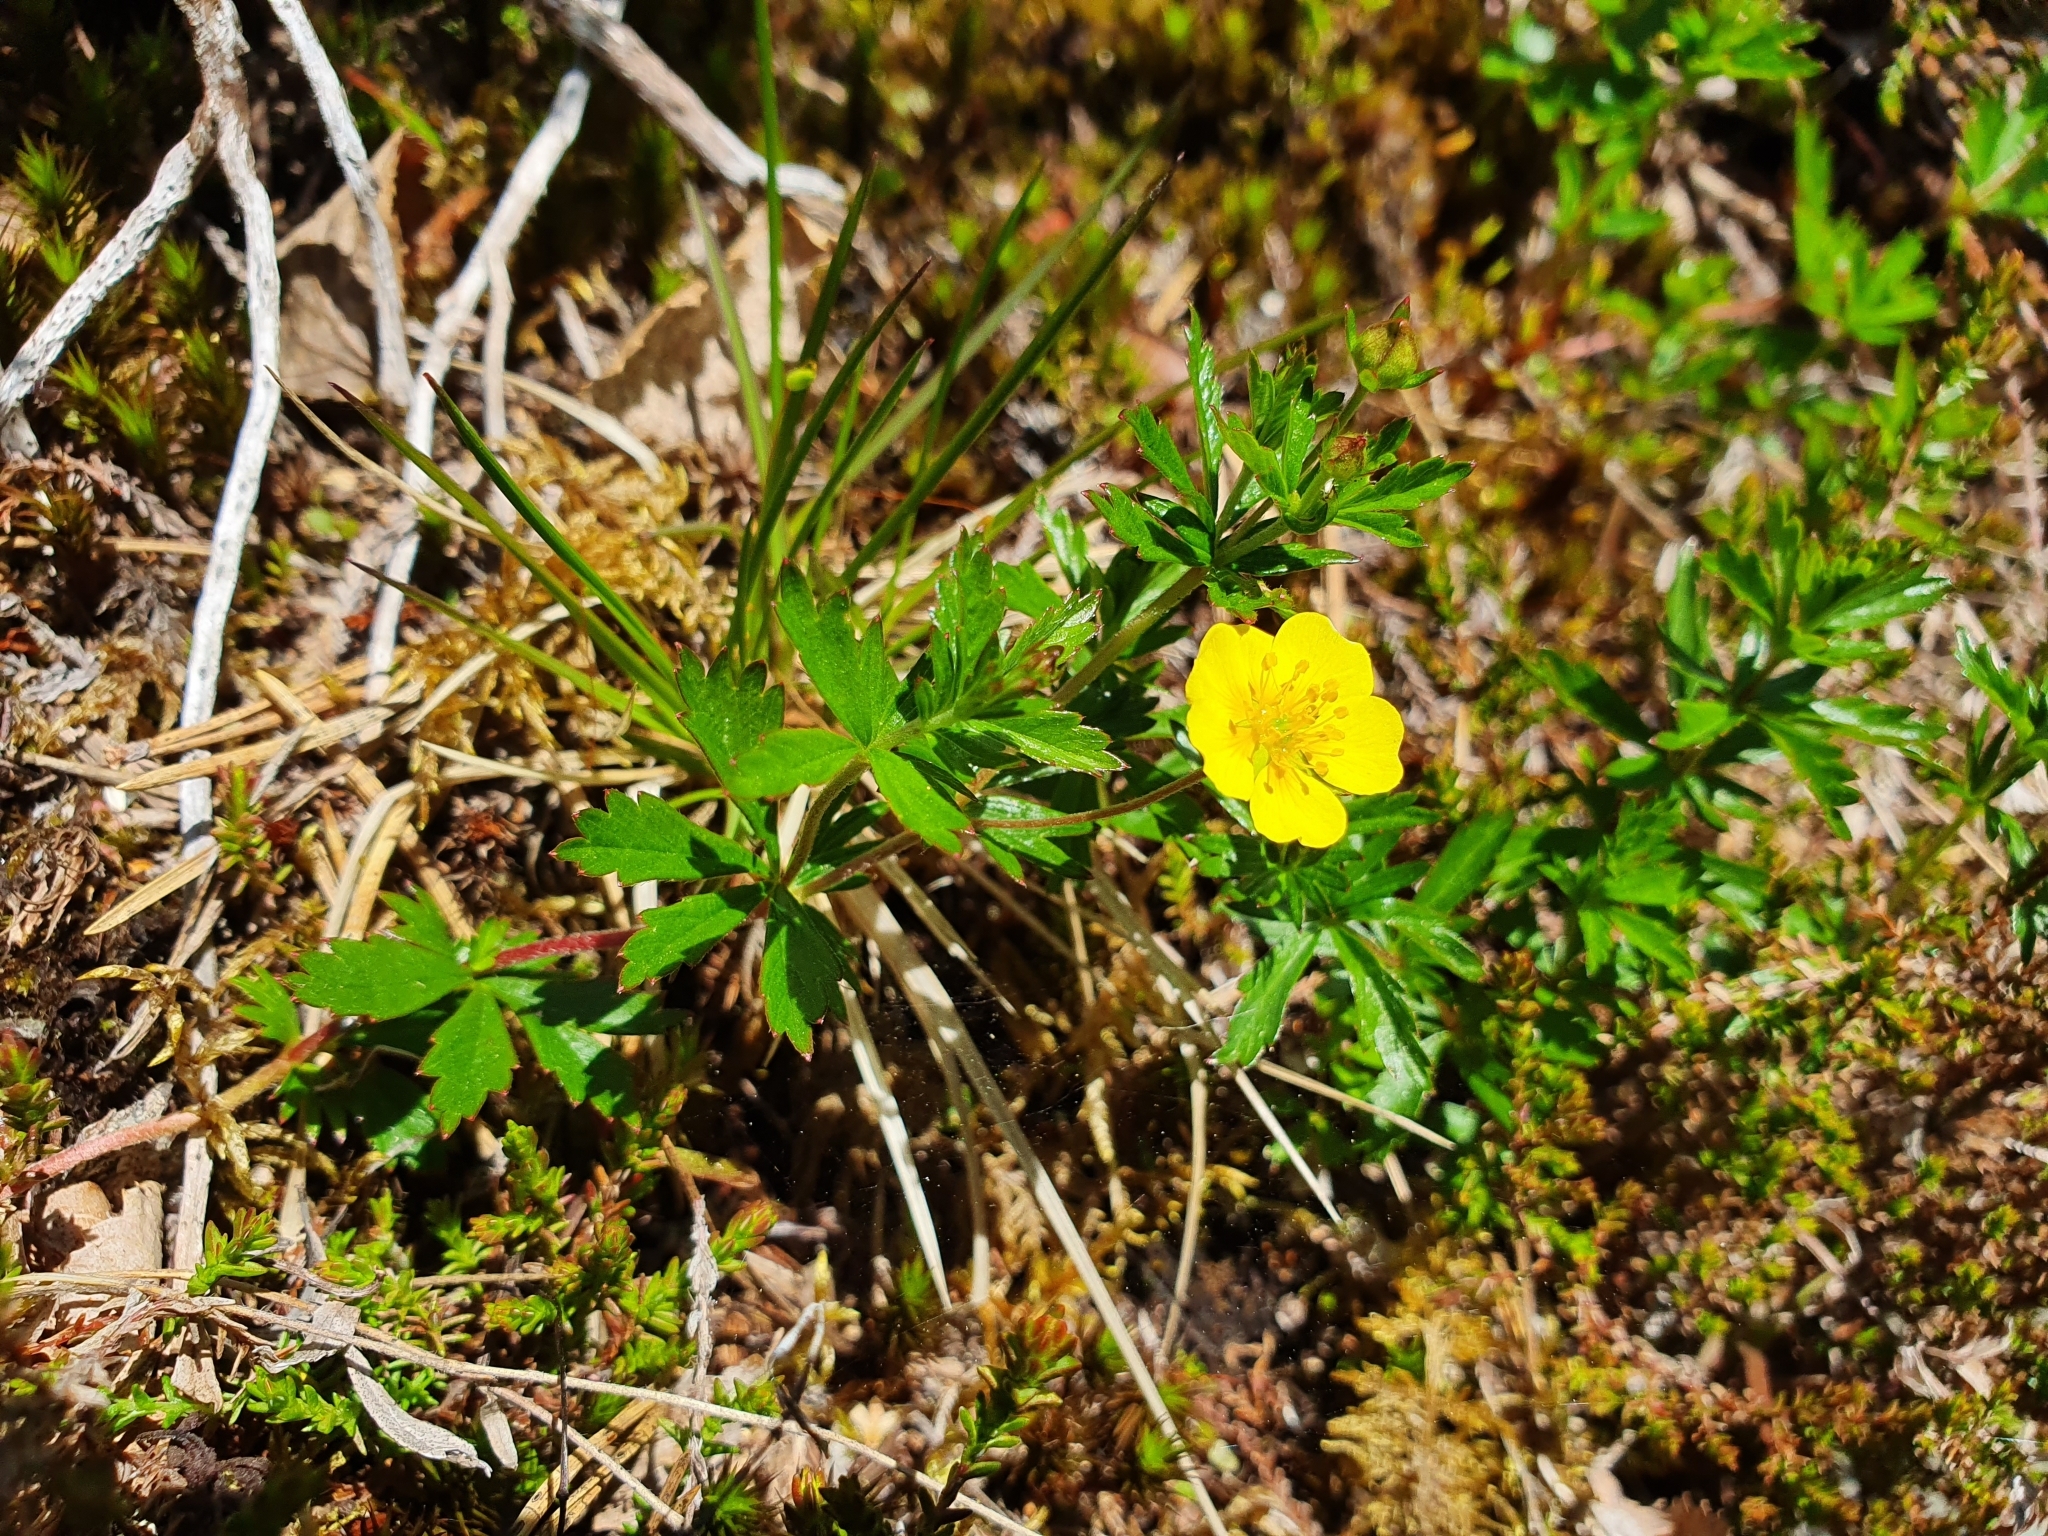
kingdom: Plantae
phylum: Tracheophyta
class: Magnoliopsida
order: Rosales
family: Rosaceae
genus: Potentilla
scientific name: Potentilla erecta
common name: Tormentil
